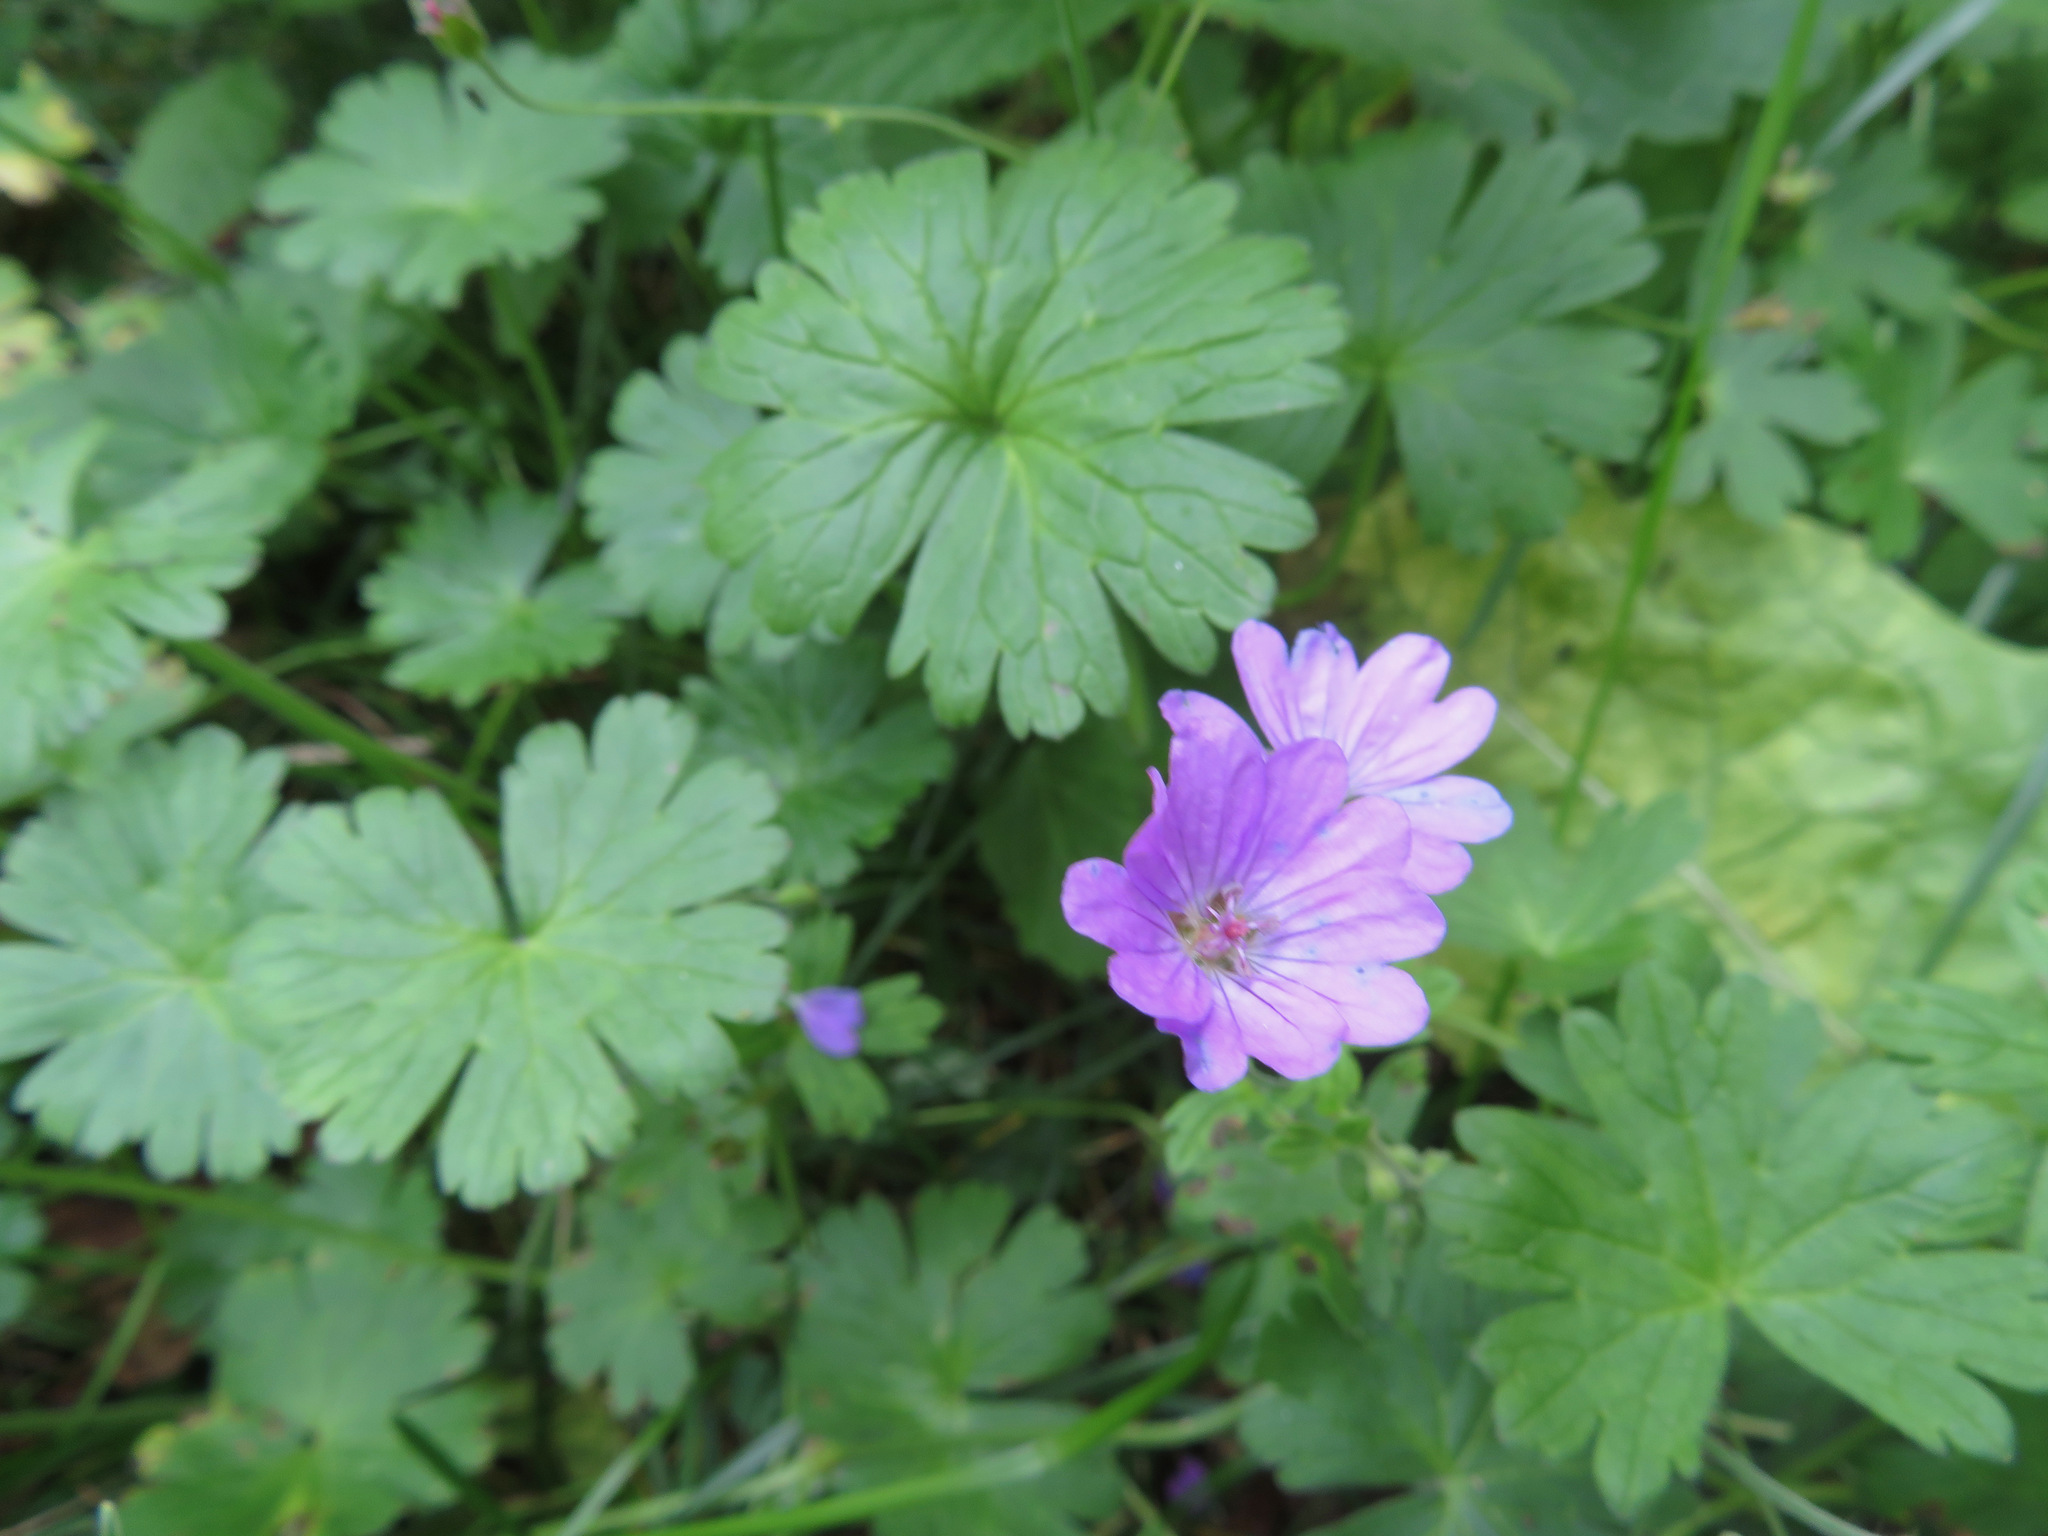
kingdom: Plantae
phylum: Tracheophyta
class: Magnoliopsida
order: Geraniales
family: Geraniaceae
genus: Geranium
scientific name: Geranium pyrenaicum
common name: Hedgerow crane's-bill
